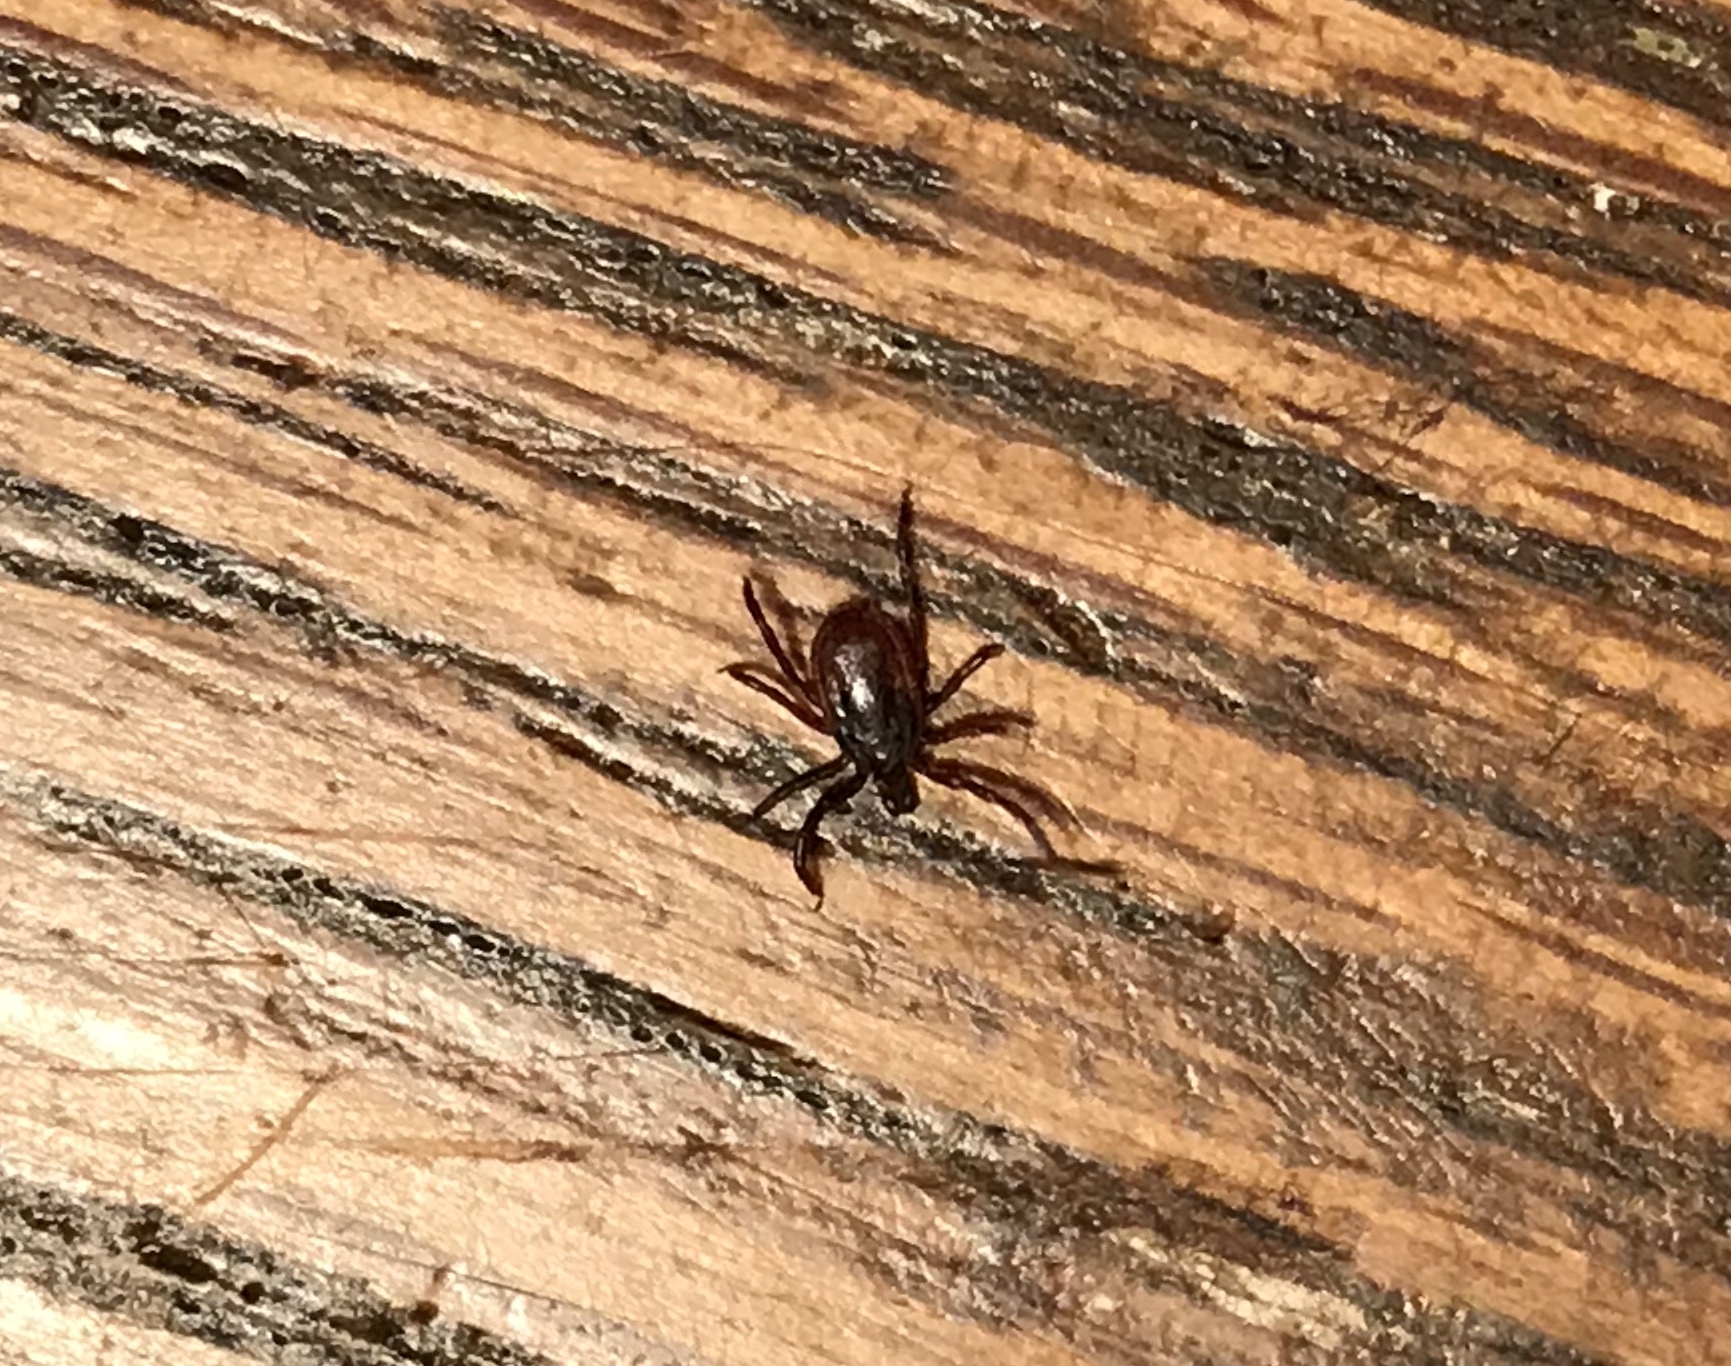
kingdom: Animalia
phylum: Arthropoda
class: Arachnida
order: Ixodida
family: Ixodidae
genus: Ixodes
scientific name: Ixodes pacificus
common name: California black-legged tick
